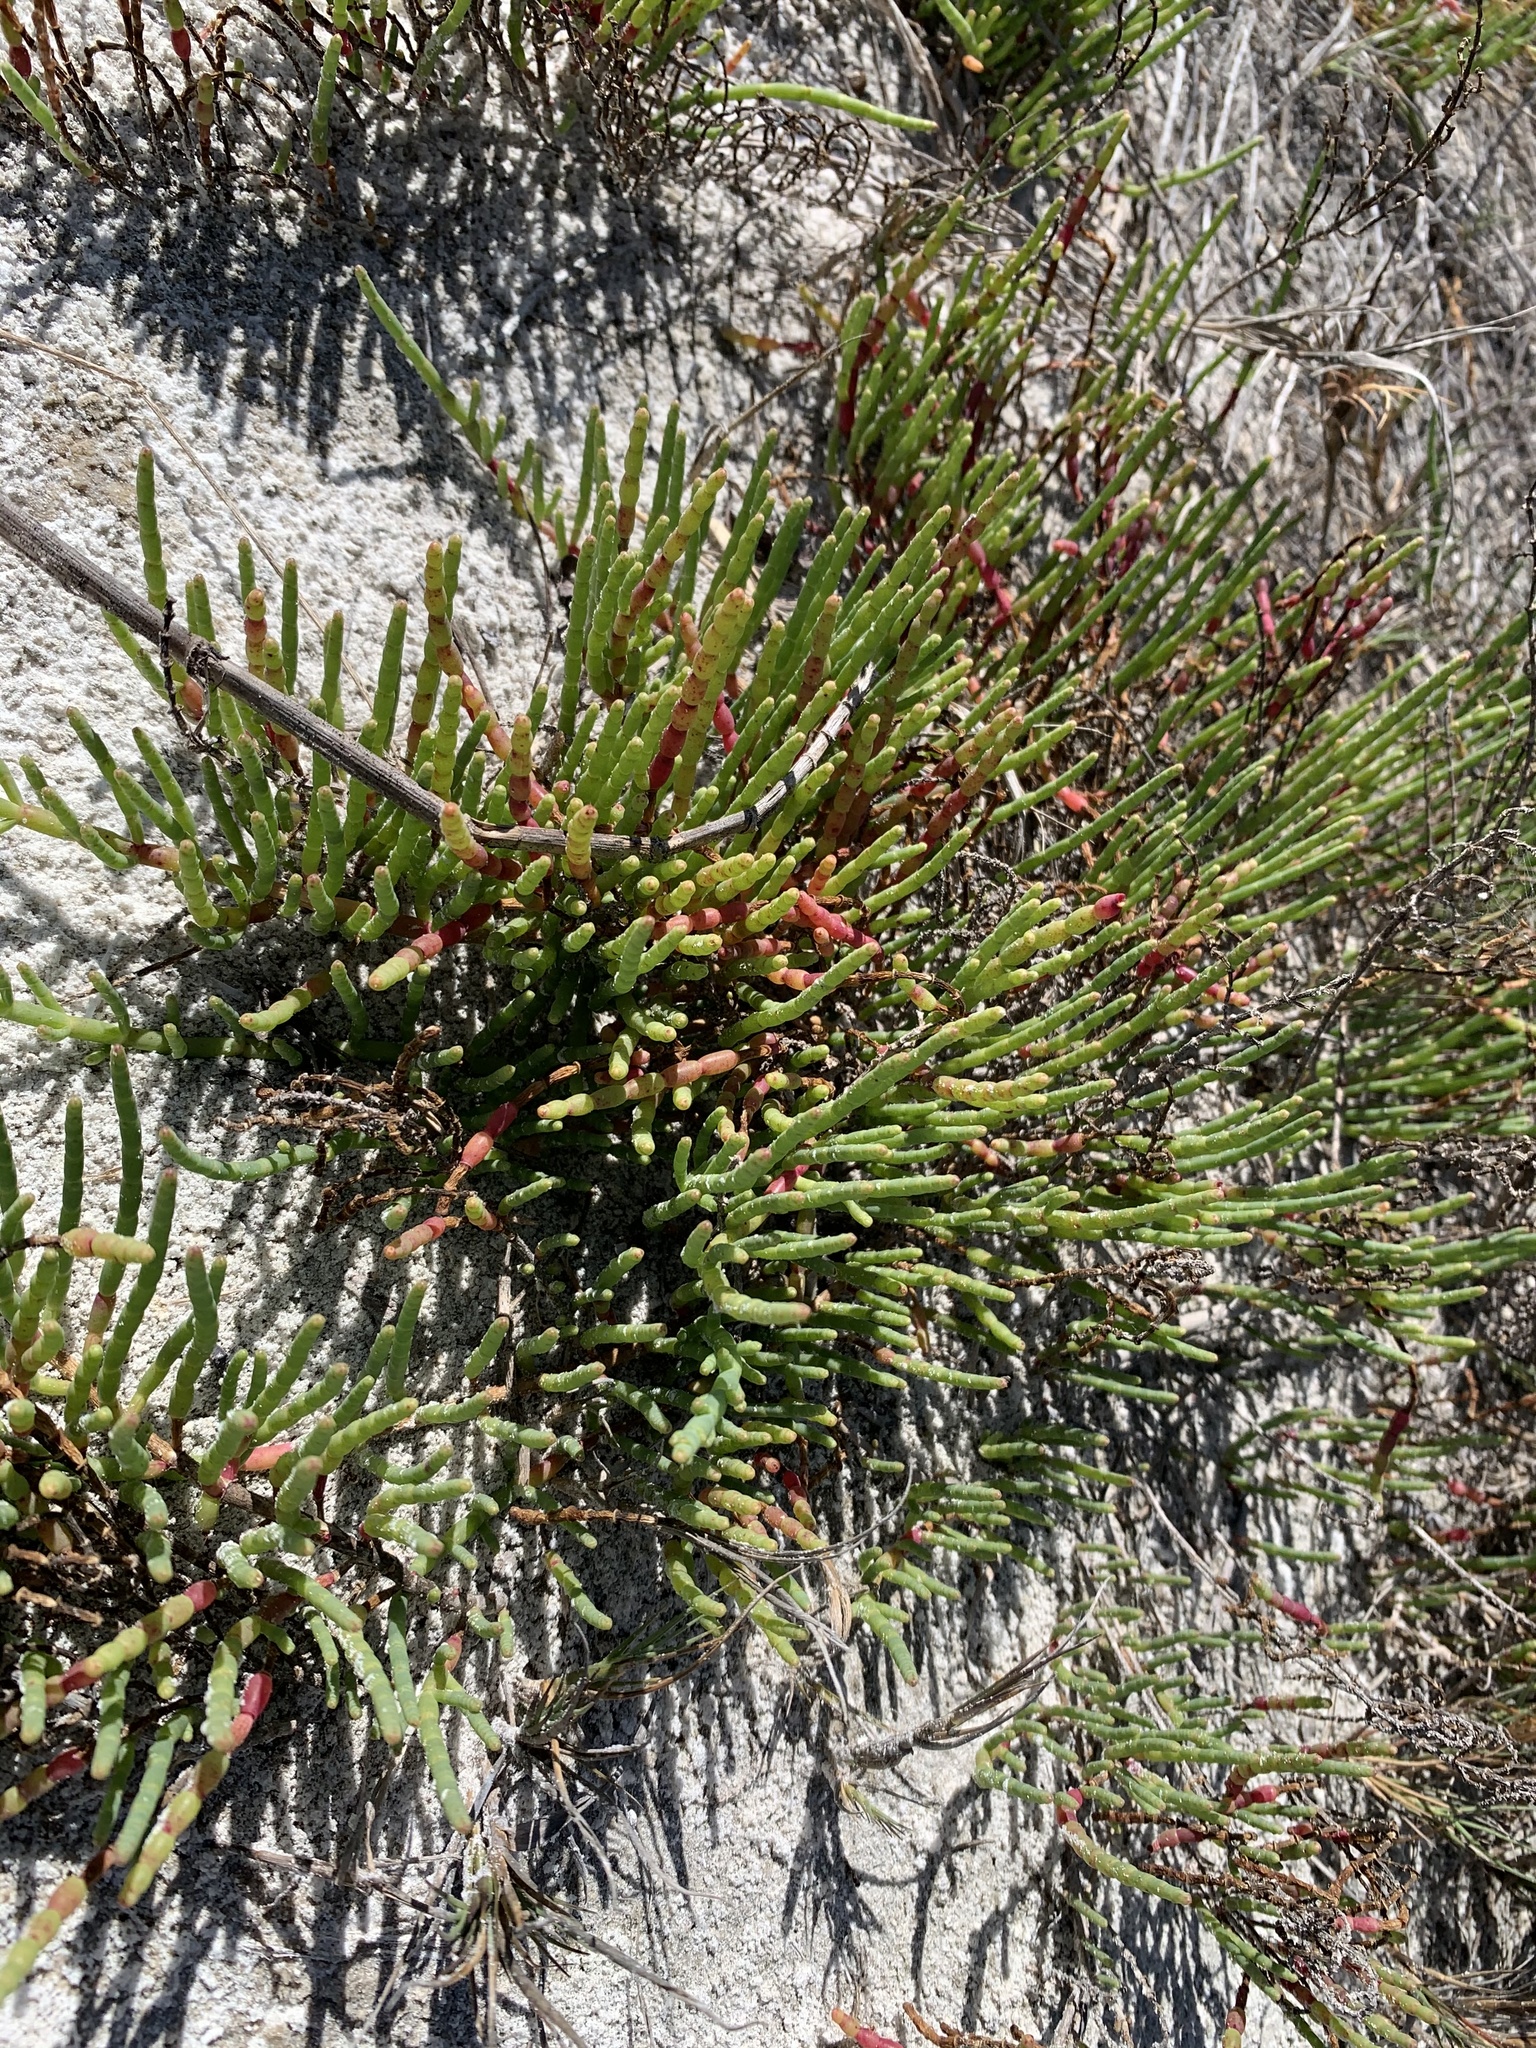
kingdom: Plantae
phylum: Tracheophyta
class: Magnoliopsida
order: Caryophyllales
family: Amaranthaceae
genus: Salicornia
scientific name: Salicornia ambigua
